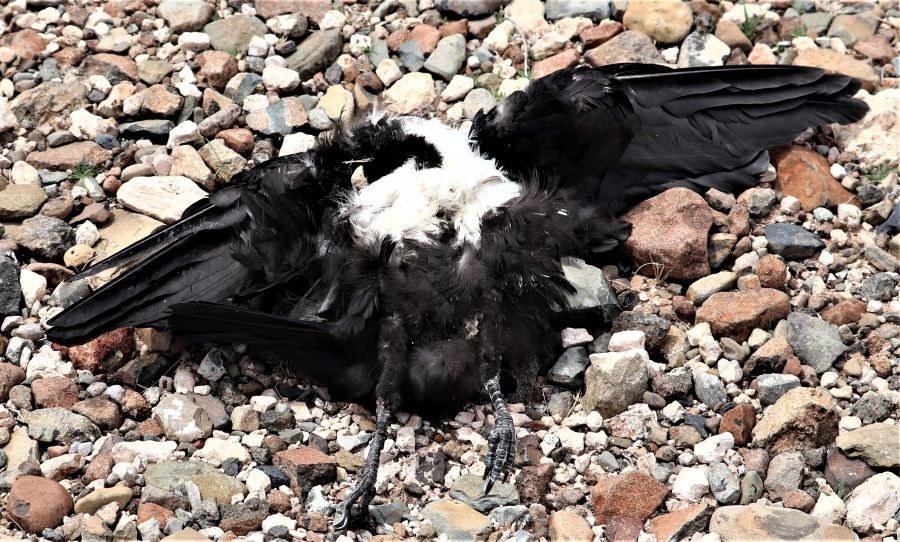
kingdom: Animalia
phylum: Chordata
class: Aves
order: Passeriformes
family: Corvidae
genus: Corvus
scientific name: Corvus albus
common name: Pied crow
